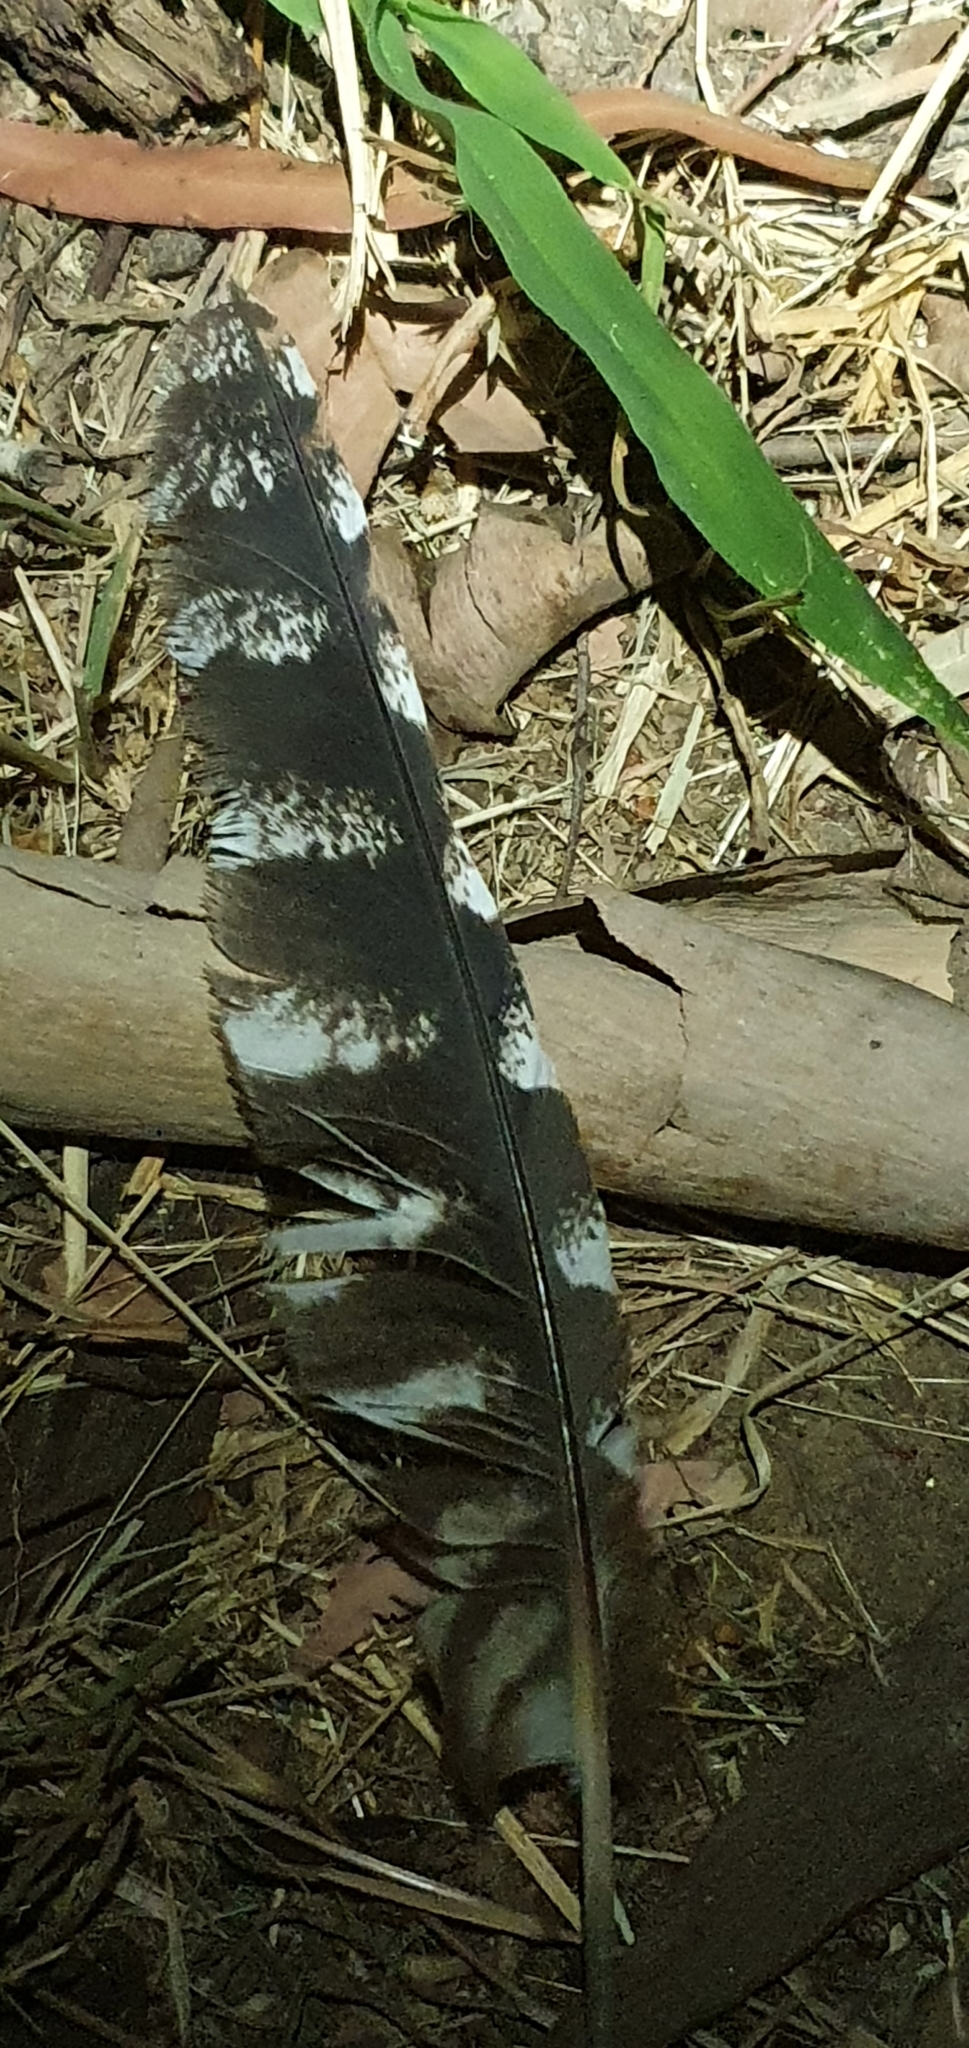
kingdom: Animalia
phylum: Chordata
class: Aves
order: Caprimulgiformes
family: Podargidae
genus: Podargus
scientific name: Podargus strigoides
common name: Tawny frogmouth
